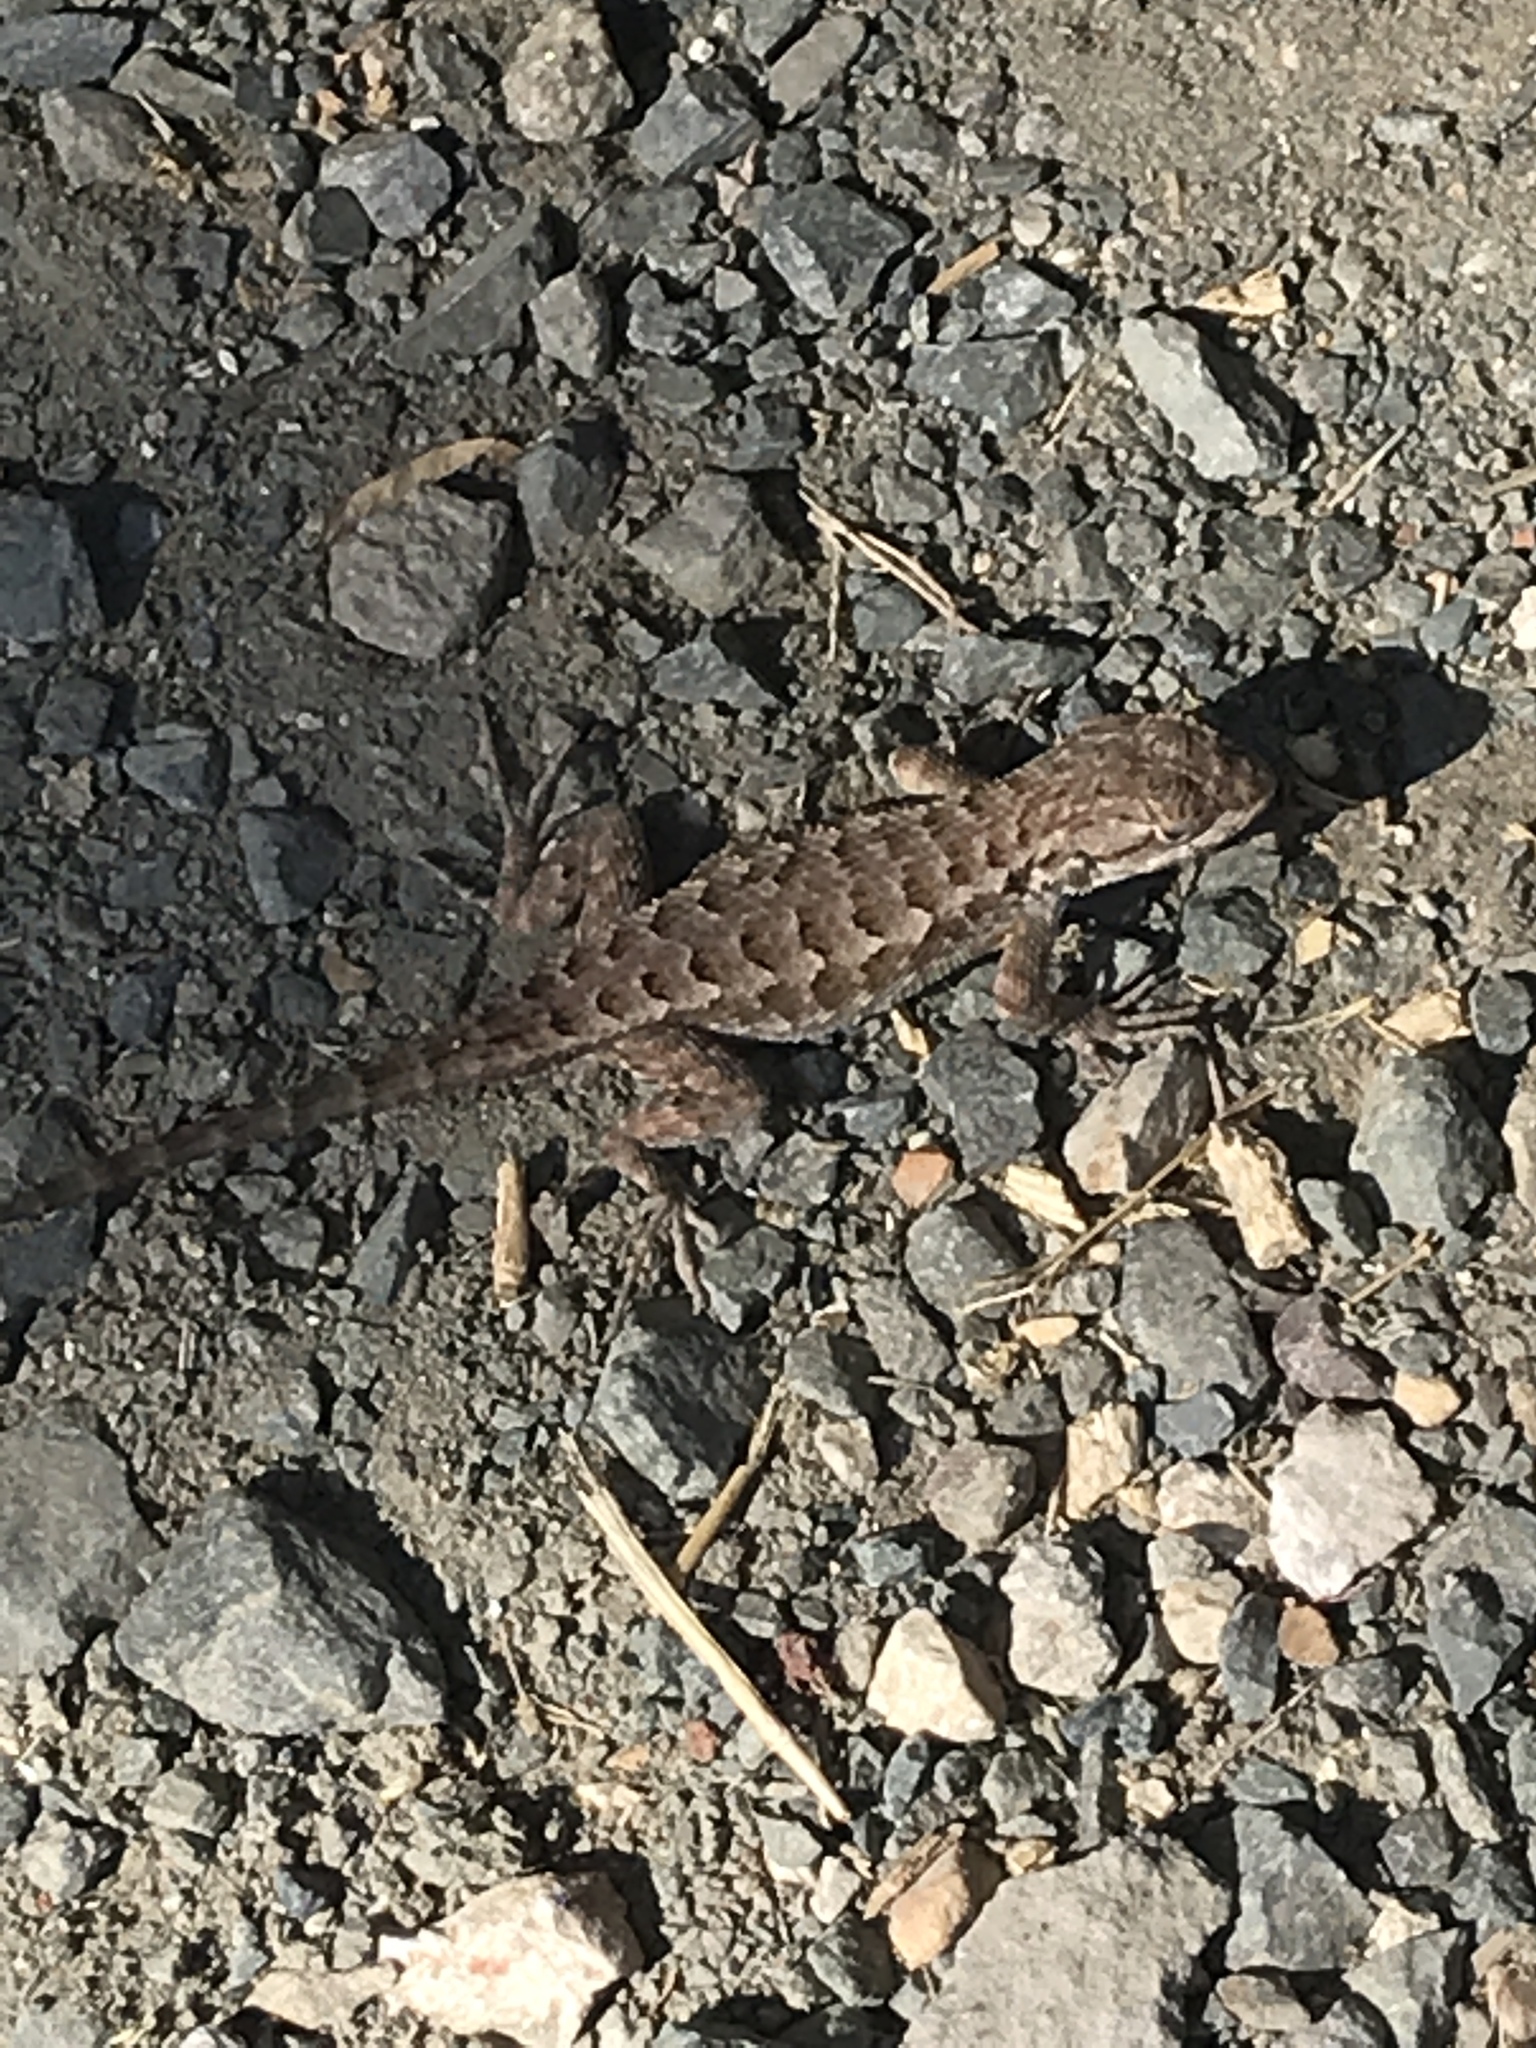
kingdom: Animalia
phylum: Chordata
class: Squamata
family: Phrynosomatidae
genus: Sceloporus
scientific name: Sceloporus occidentalis
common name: Western fence lizard
